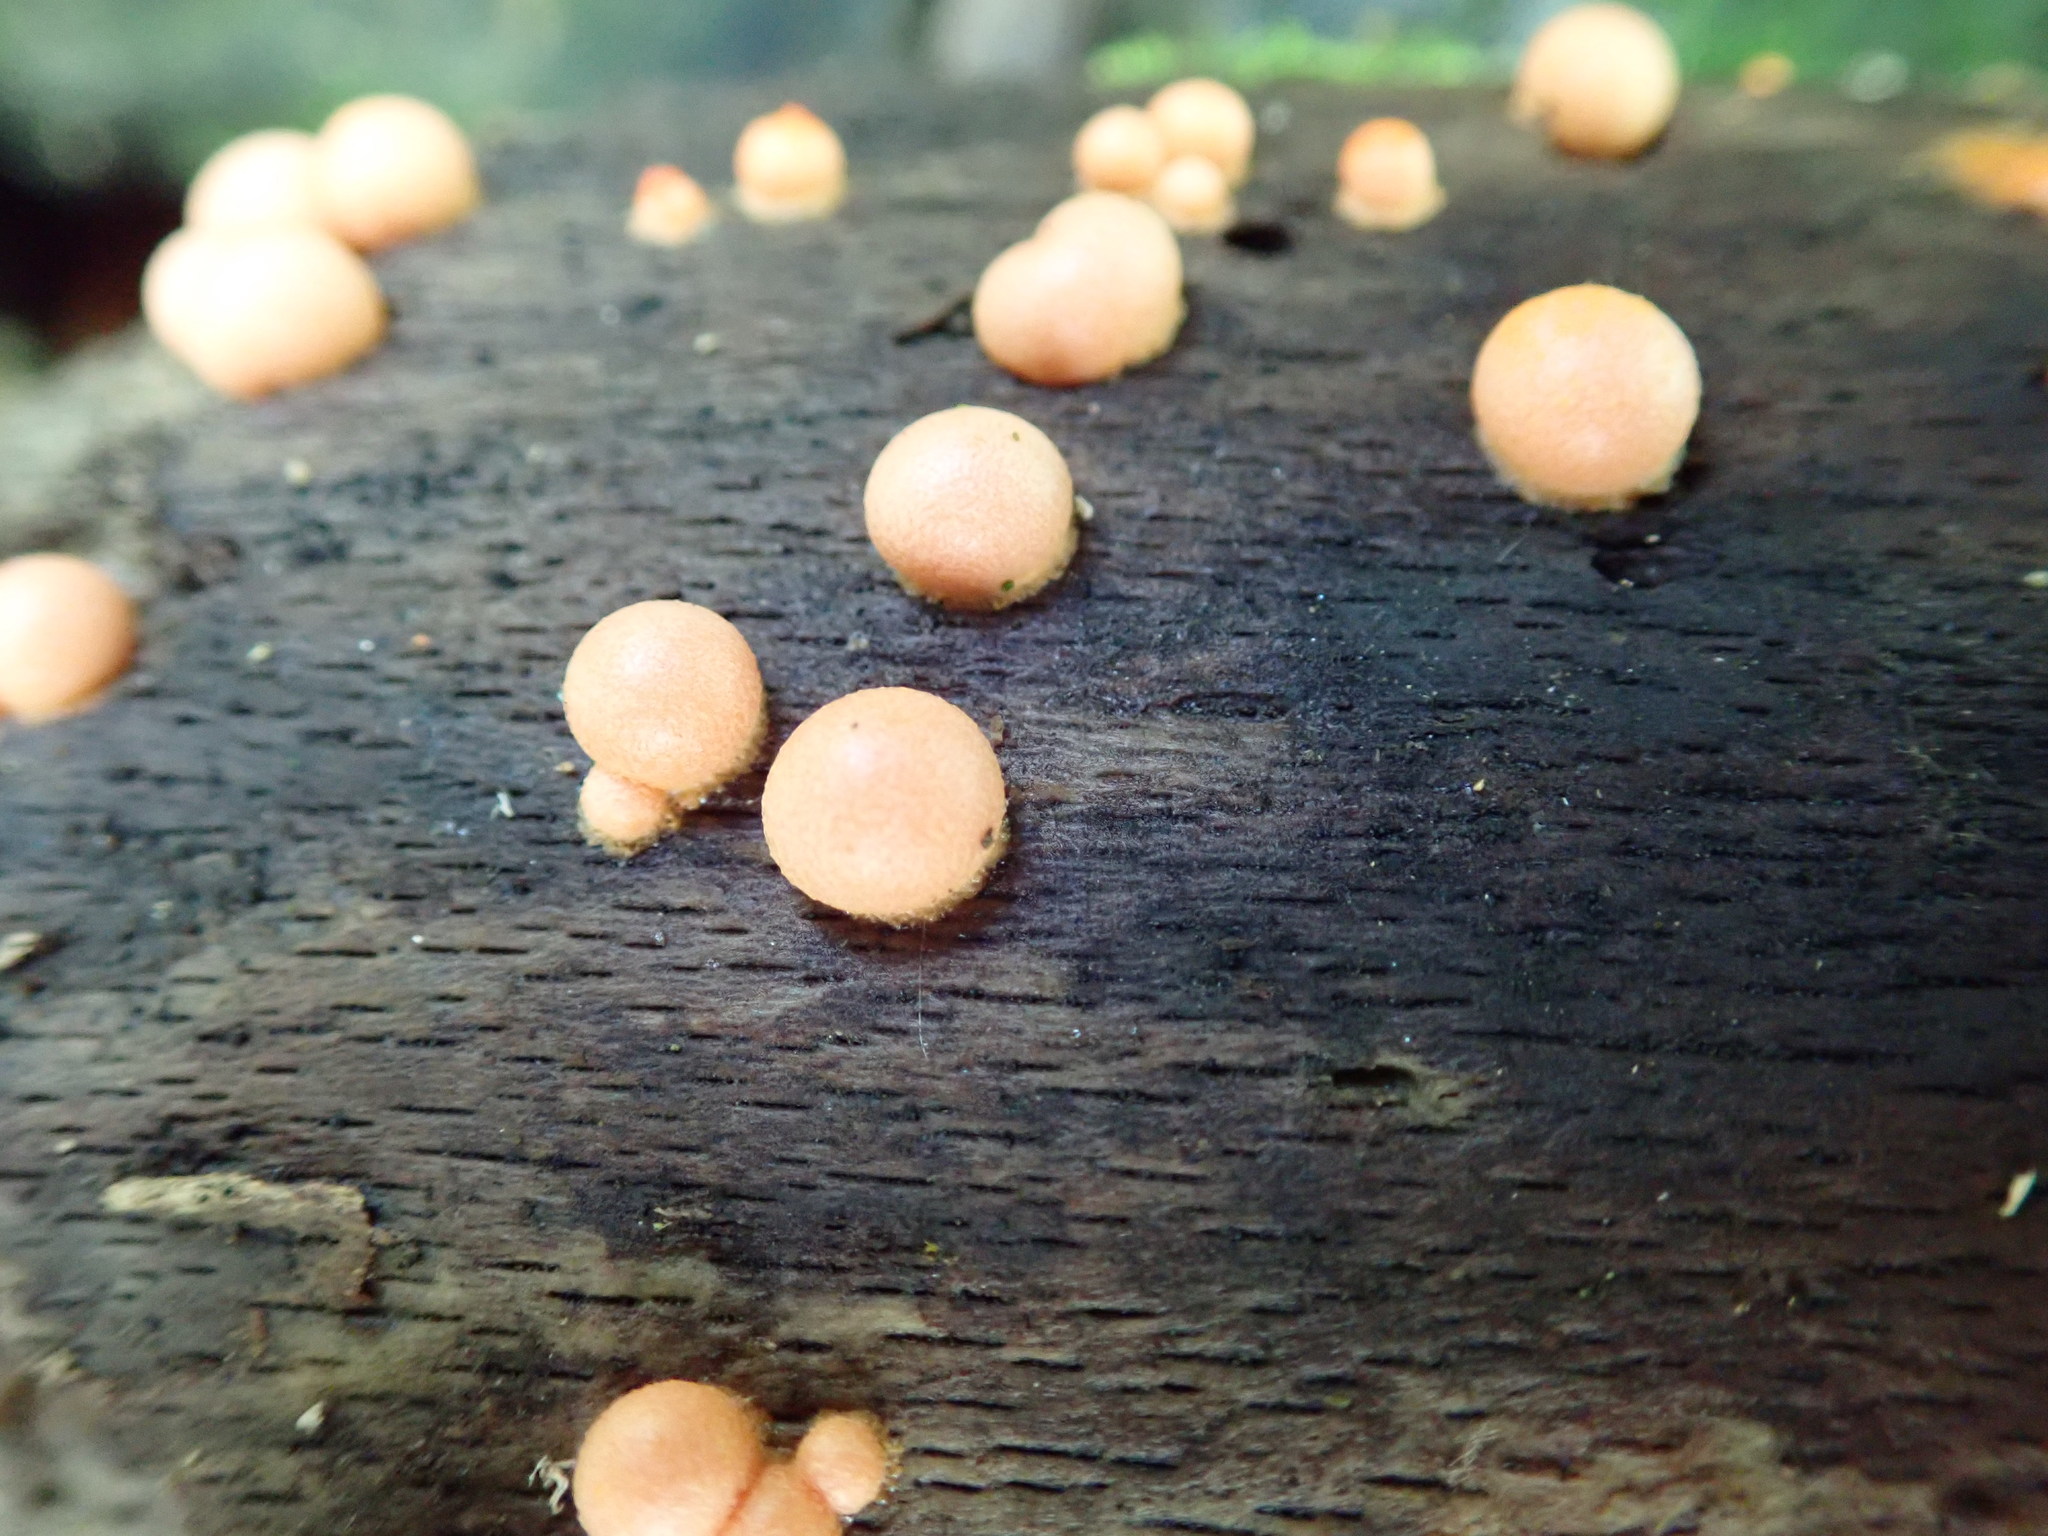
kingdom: Protozoa
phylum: Mycetozoa
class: Myxomycetes
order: Cribrariales
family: Tubiferaceae
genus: Lycogala
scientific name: Lycogala epidendrum
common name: Wolf's milk
